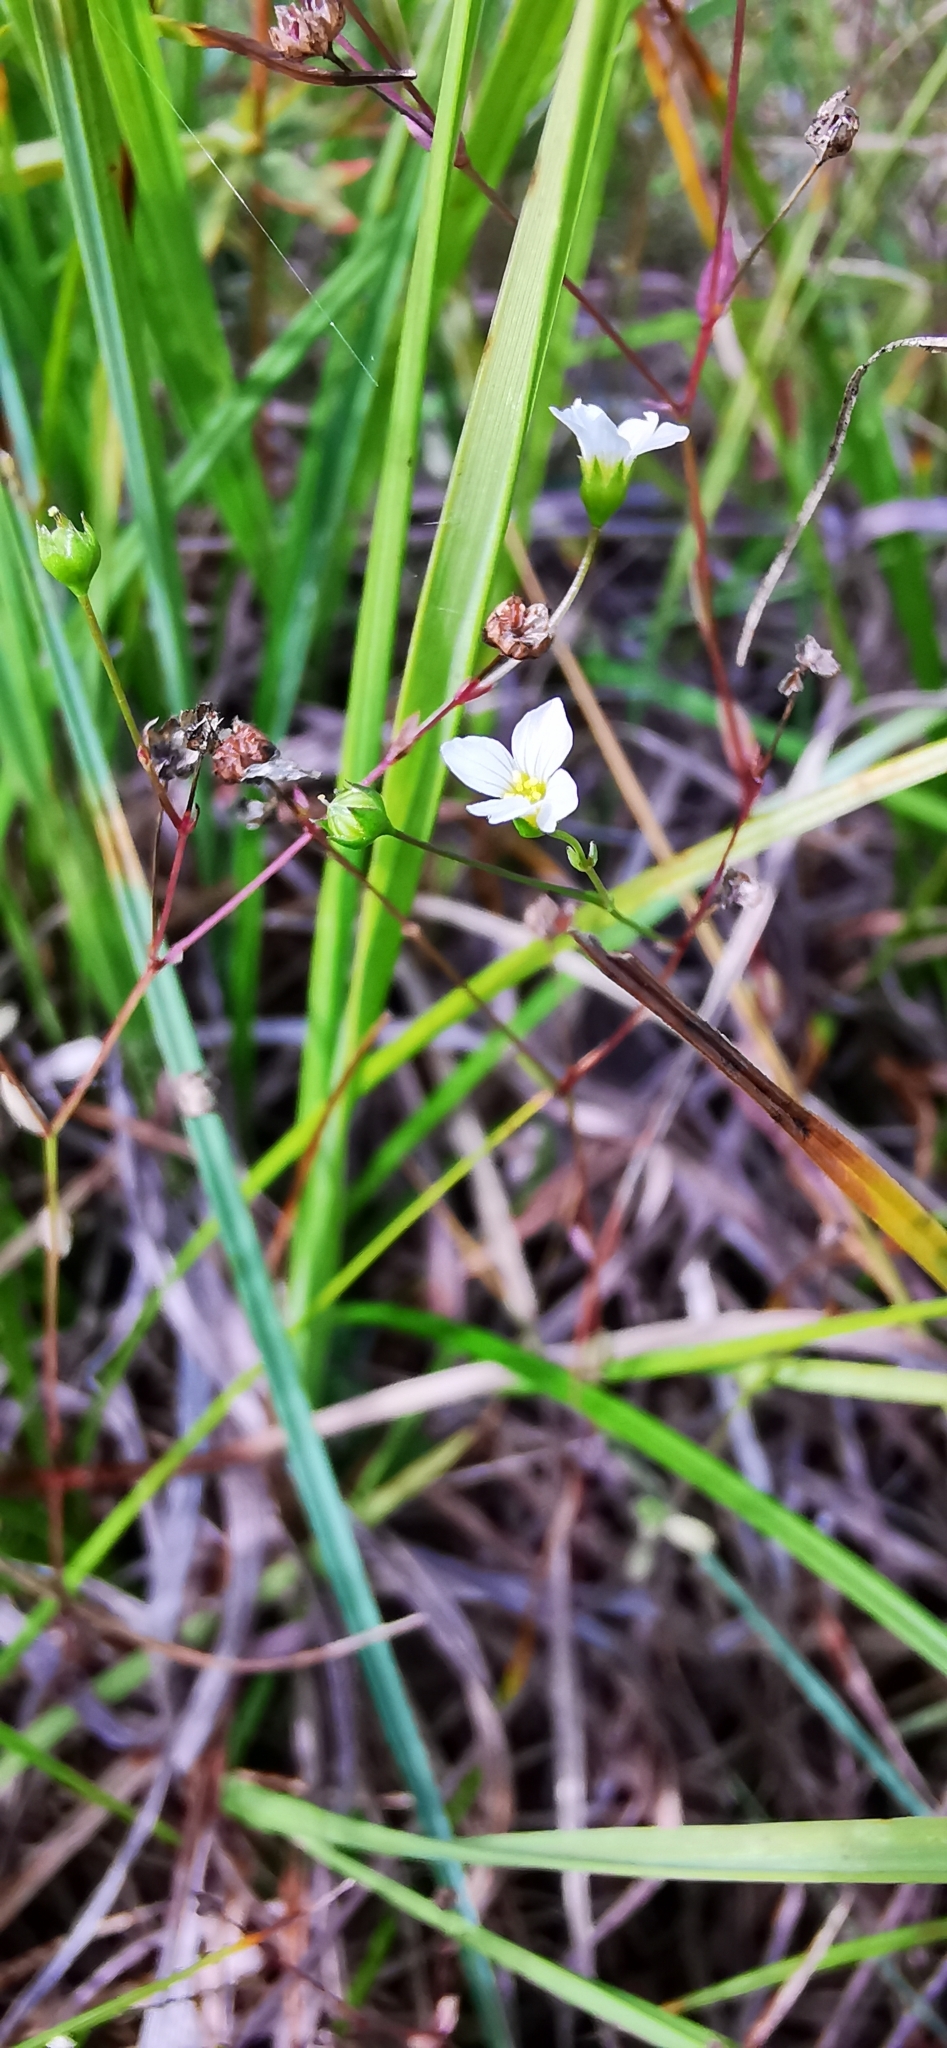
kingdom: Plantae
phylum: Tracheophyta
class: Magnoliopsida
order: Malpighiales
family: Linaceae
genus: Linum
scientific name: Linum catharticum
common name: Fairy flax
